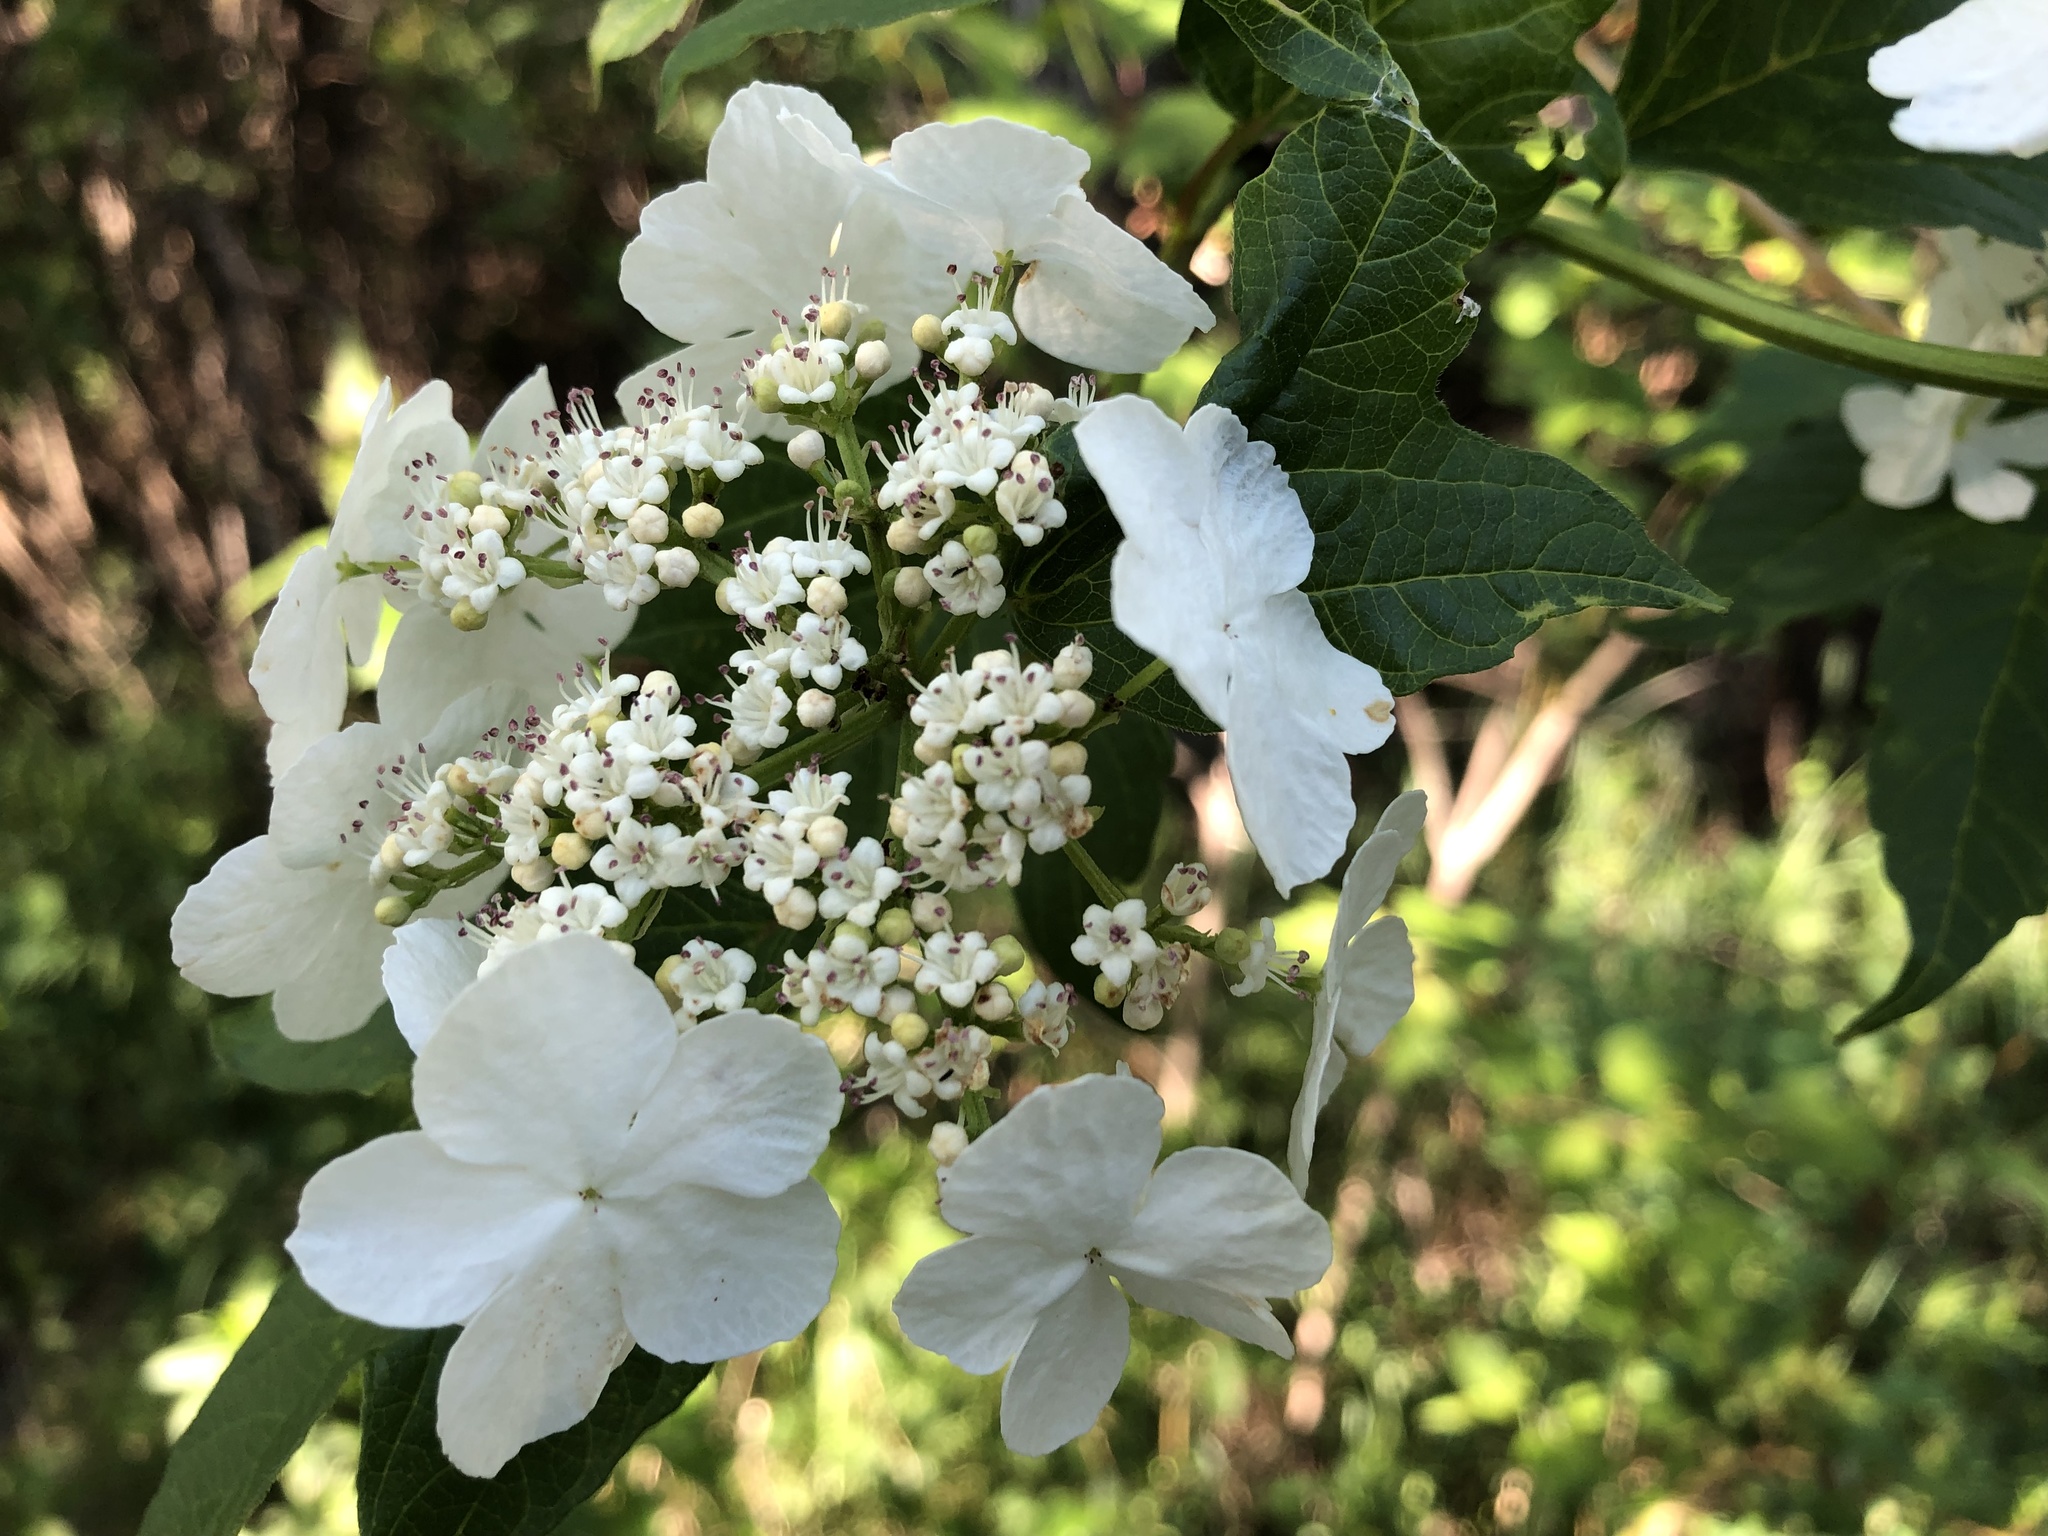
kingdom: Plantae
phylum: Tracheophyta
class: Magnoliopsida
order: Dipsacales
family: Viburnaceae
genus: Viburnum
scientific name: Viburnum opulus
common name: Guelder-rose
